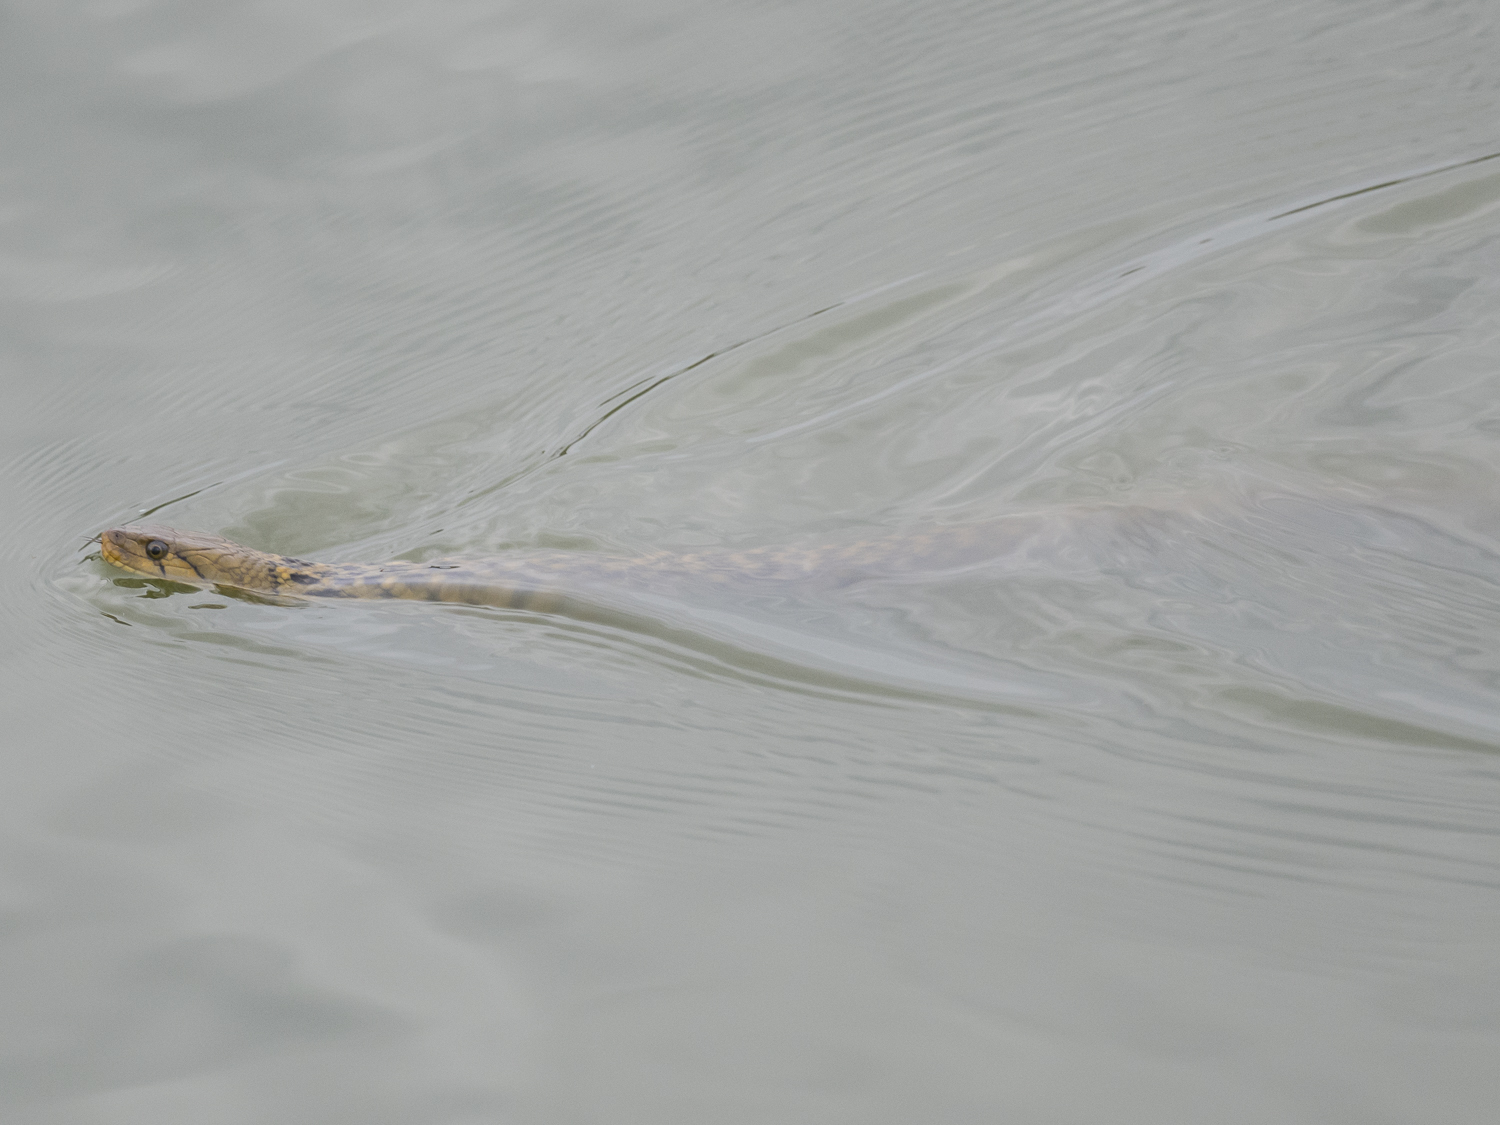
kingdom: Animalia
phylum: Chordata
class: Squamata
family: Colubridae
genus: Fowlea
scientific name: Fowlea piscator
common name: Asiatic water snake
